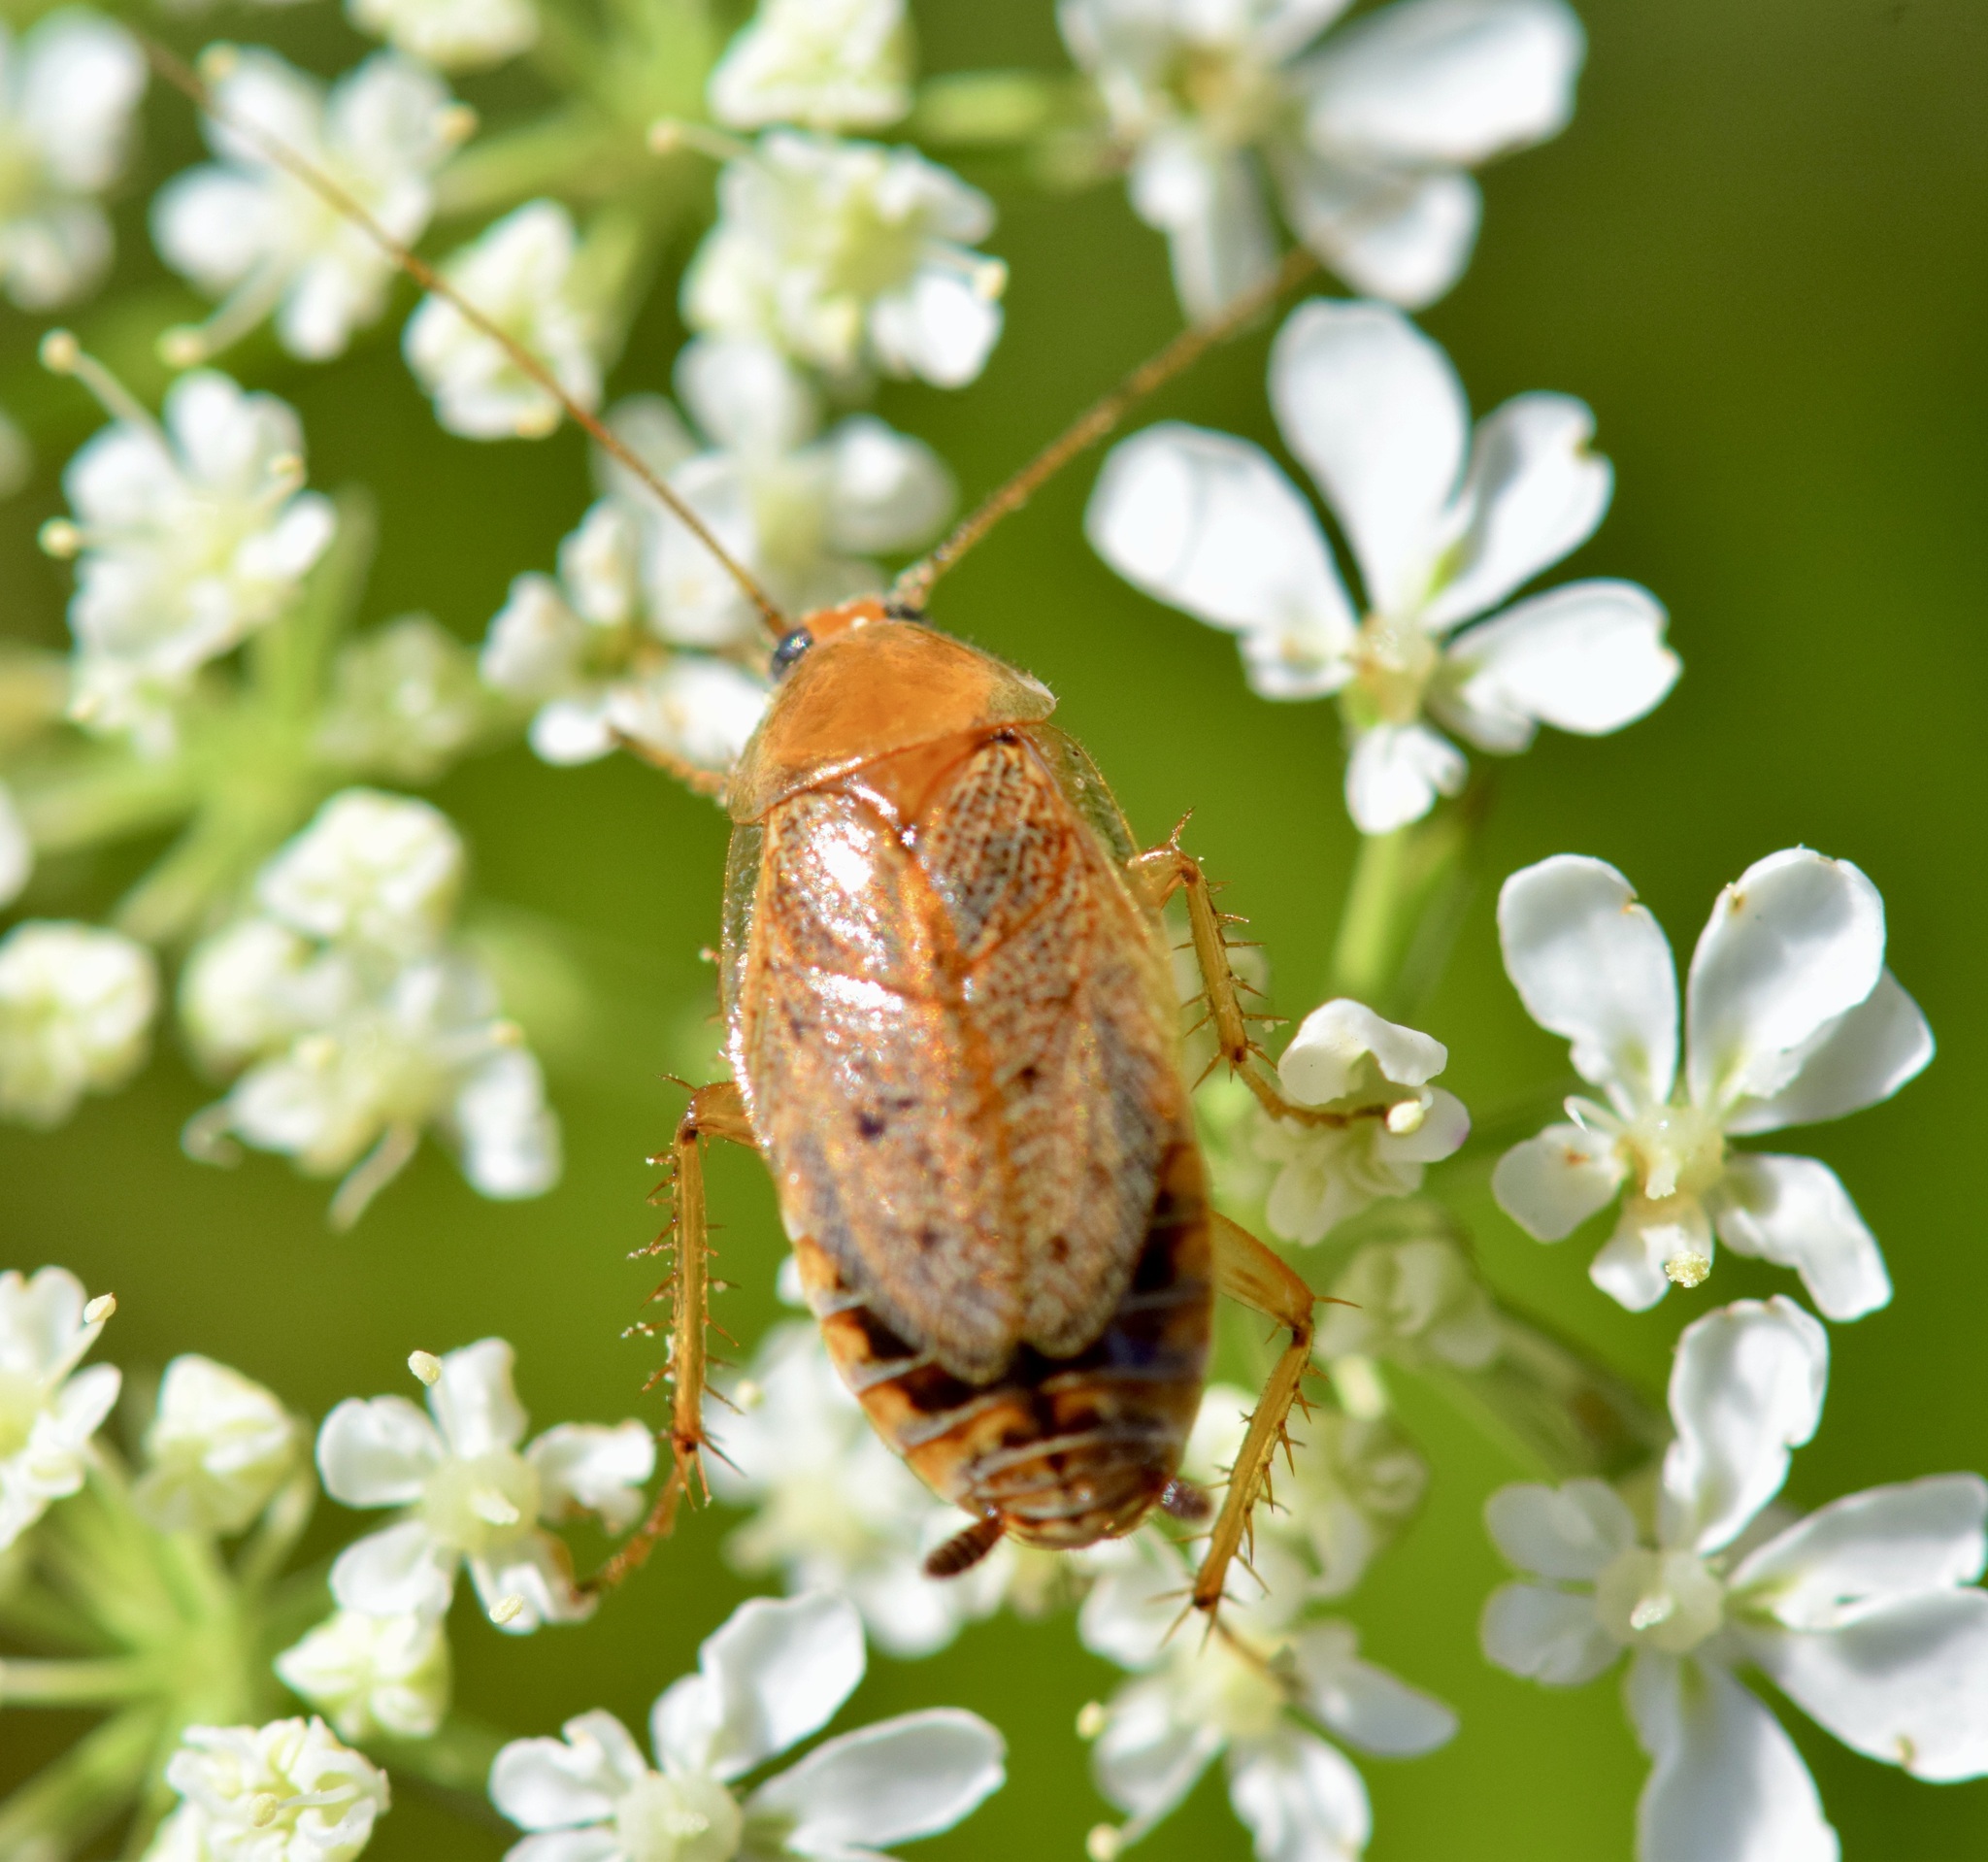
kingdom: Animalia
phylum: Arthropoda
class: Insecta
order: Blattodea
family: Ectobiidae
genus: Ectobius
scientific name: Ectobius lapponicus
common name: Dusky cockroach
